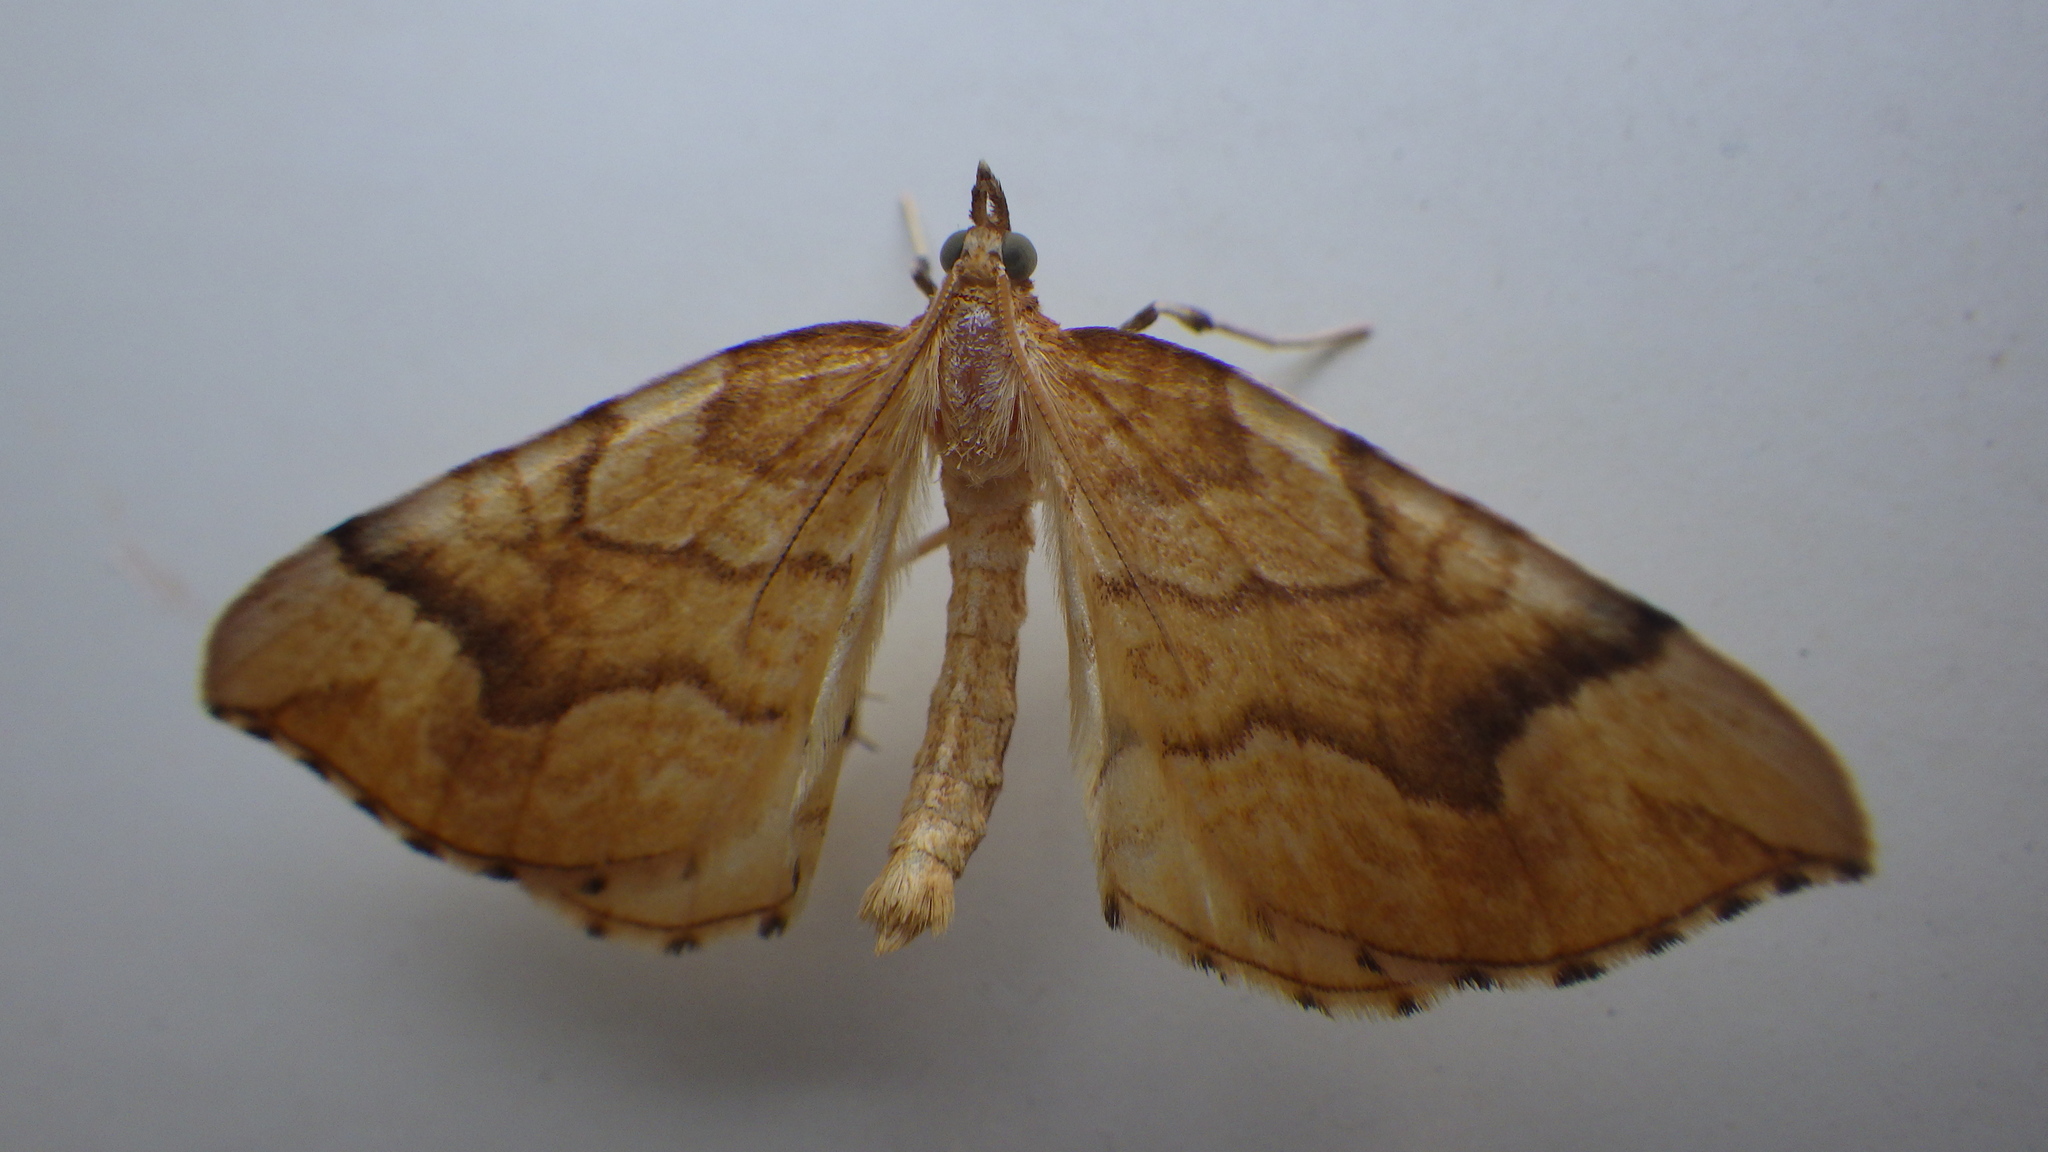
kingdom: Animalia
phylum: Arthropoda
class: Insecta
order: Lepidoptera
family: Geometridae
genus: Eulithis
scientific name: Eulithis mellinata
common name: Spinach
